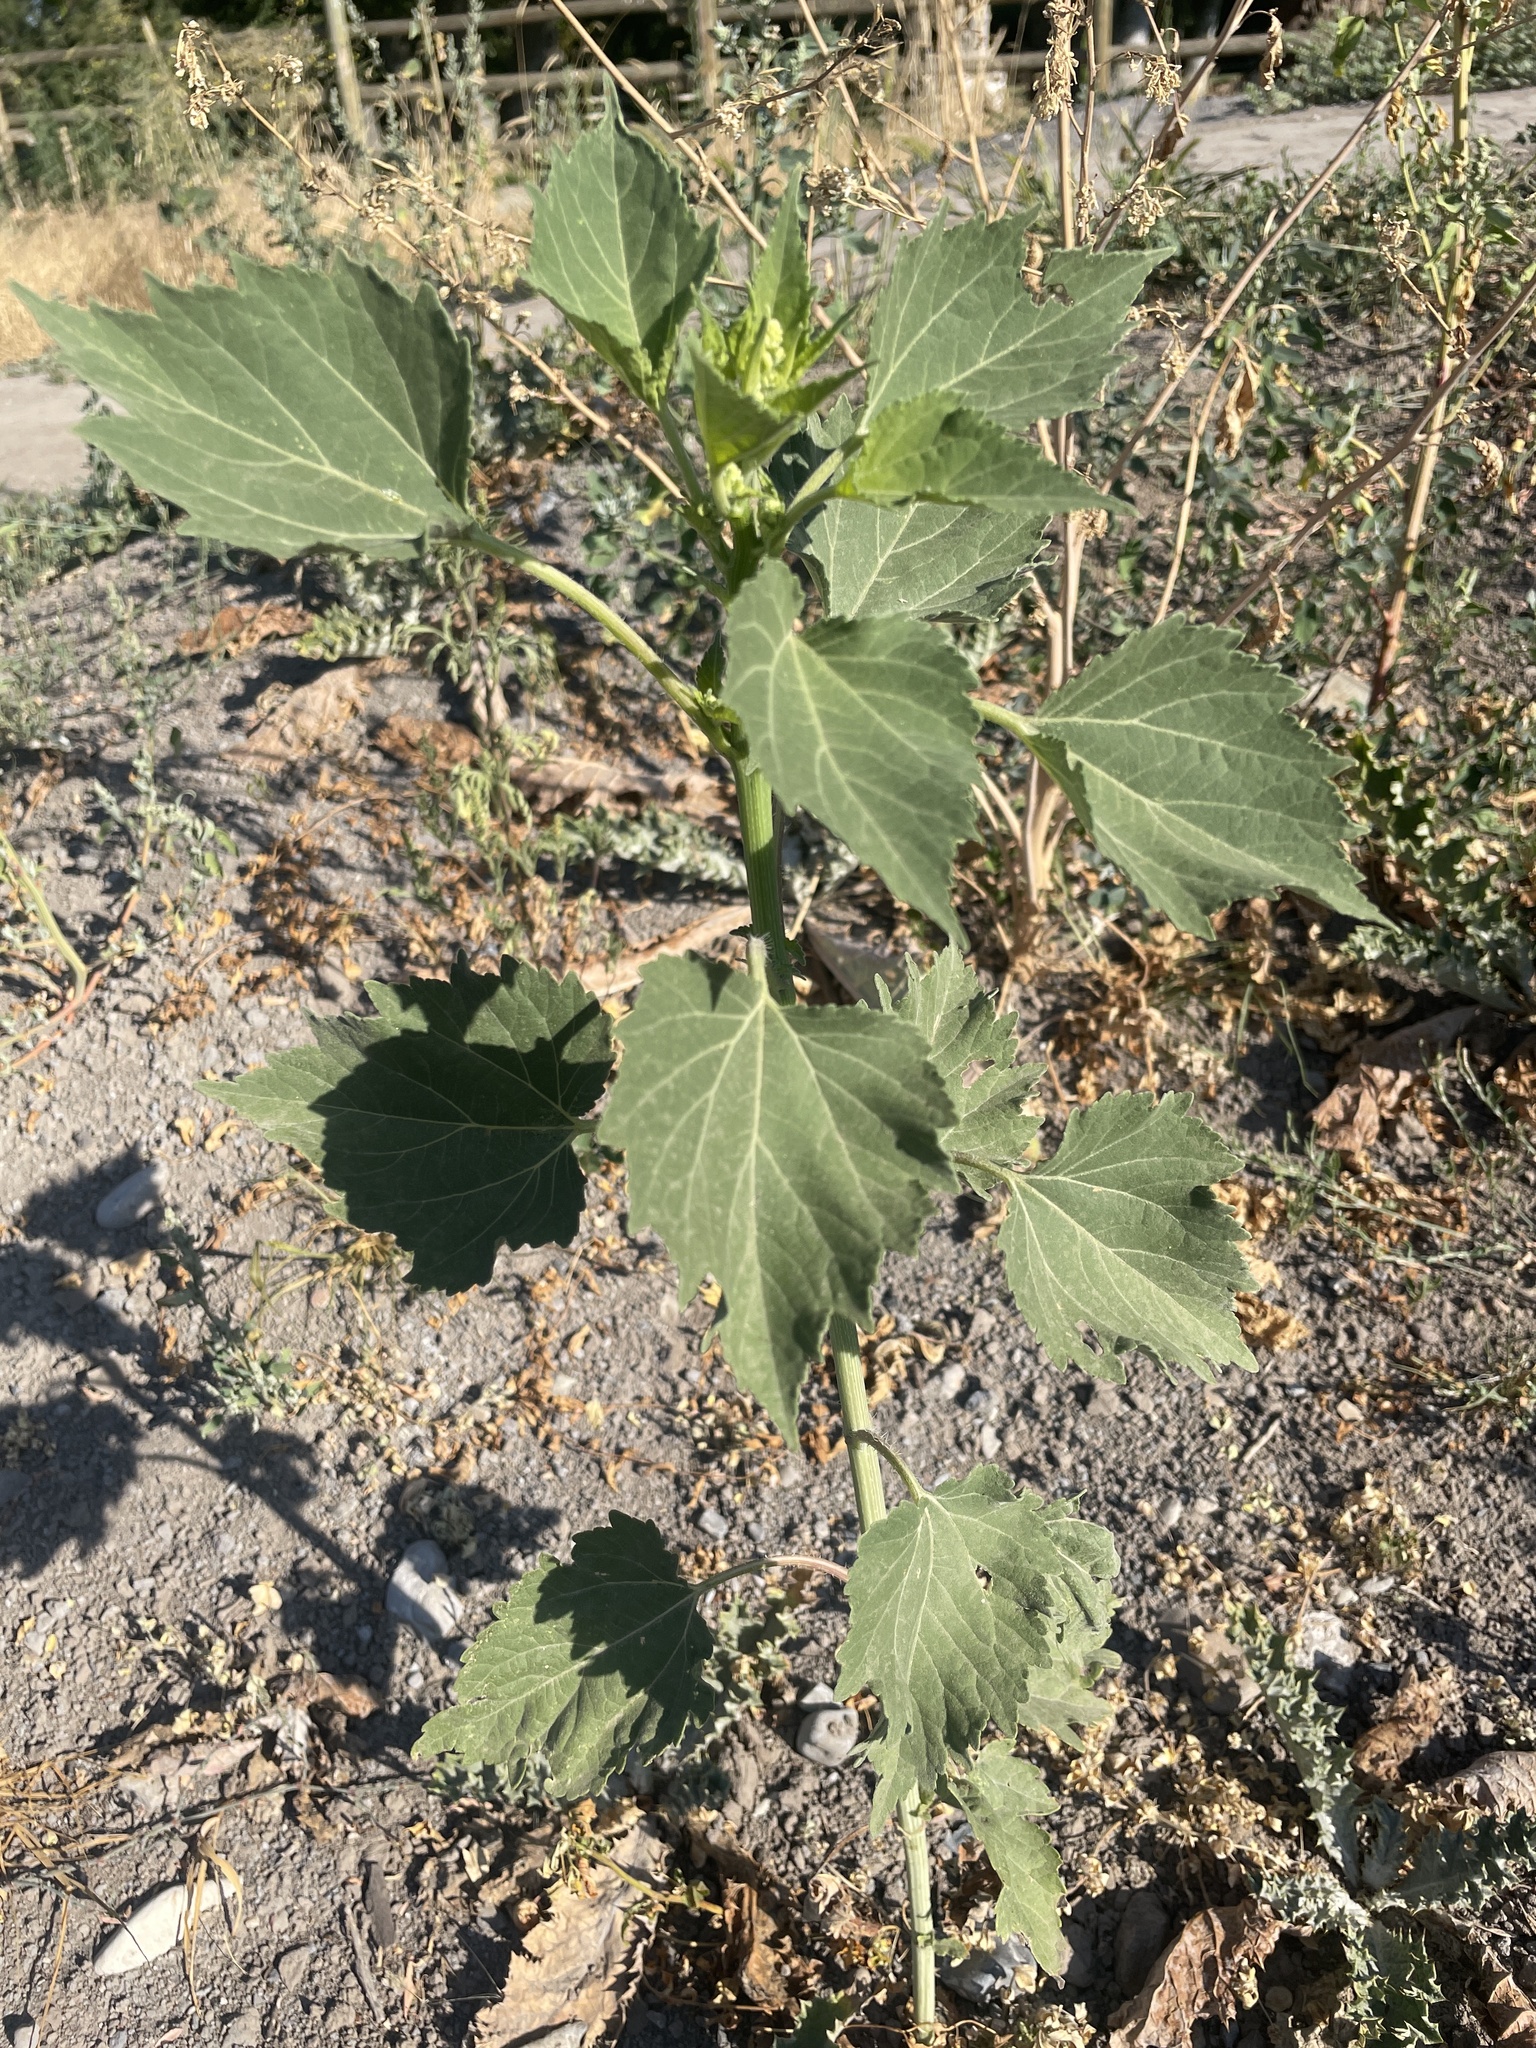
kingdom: Plantae
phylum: Tracheophyta
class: Magnoliopsida
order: Asterales
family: Asteraceae
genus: Cyclachaena
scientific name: Cyclachaena xanthiifolia
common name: Giant sumpweed
